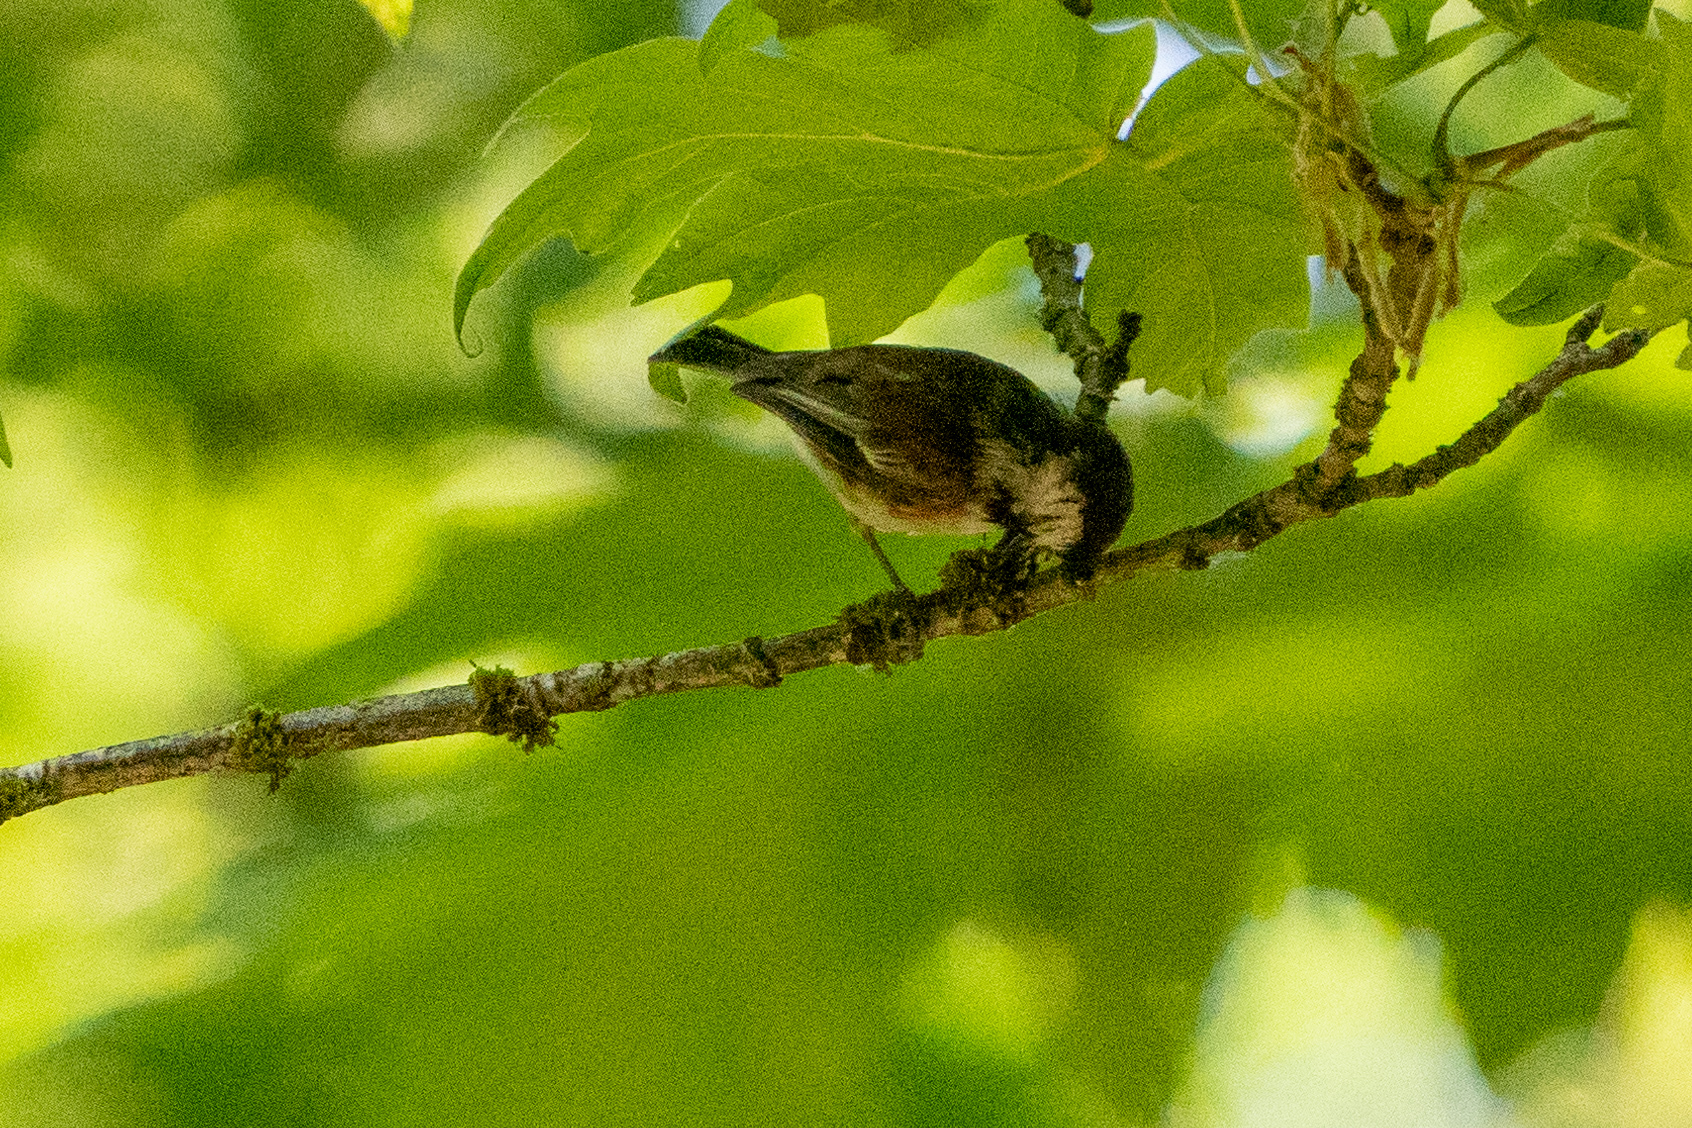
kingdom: Animalia
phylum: Chordata
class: Aves
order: Passeriformes
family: Paridae
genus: Poecile
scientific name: Poecile rufescens
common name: Chestnut-backed chickadee
